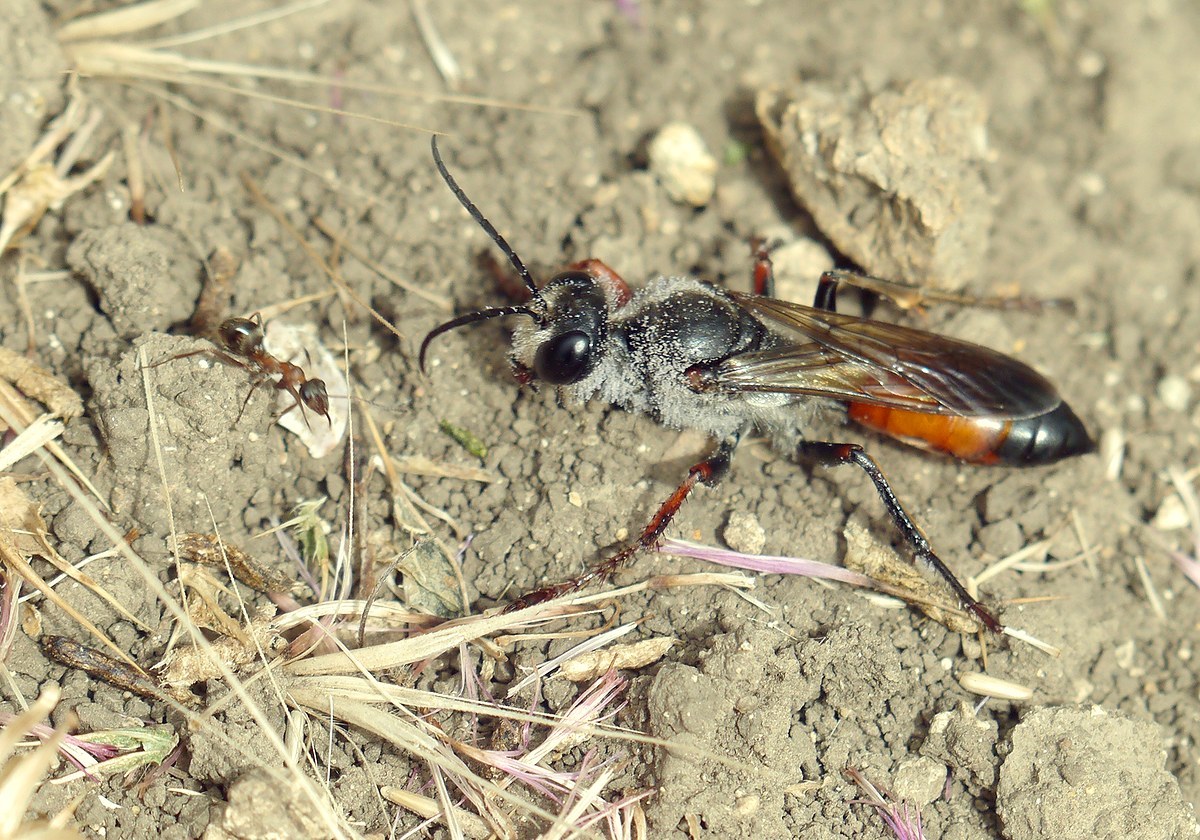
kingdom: Animalia
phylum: Arthropoda
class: Insecta
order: Hymenoptera
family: Sphecidae
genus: Sphex
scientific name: Sphex funerarius
